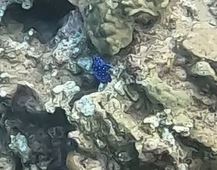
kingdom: Animalia
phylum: Chordata
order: Perciformes
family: Pomacentridae
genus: Microspathodon
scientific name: Microspathodon chrysurus
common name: Yellowtail damselfish
